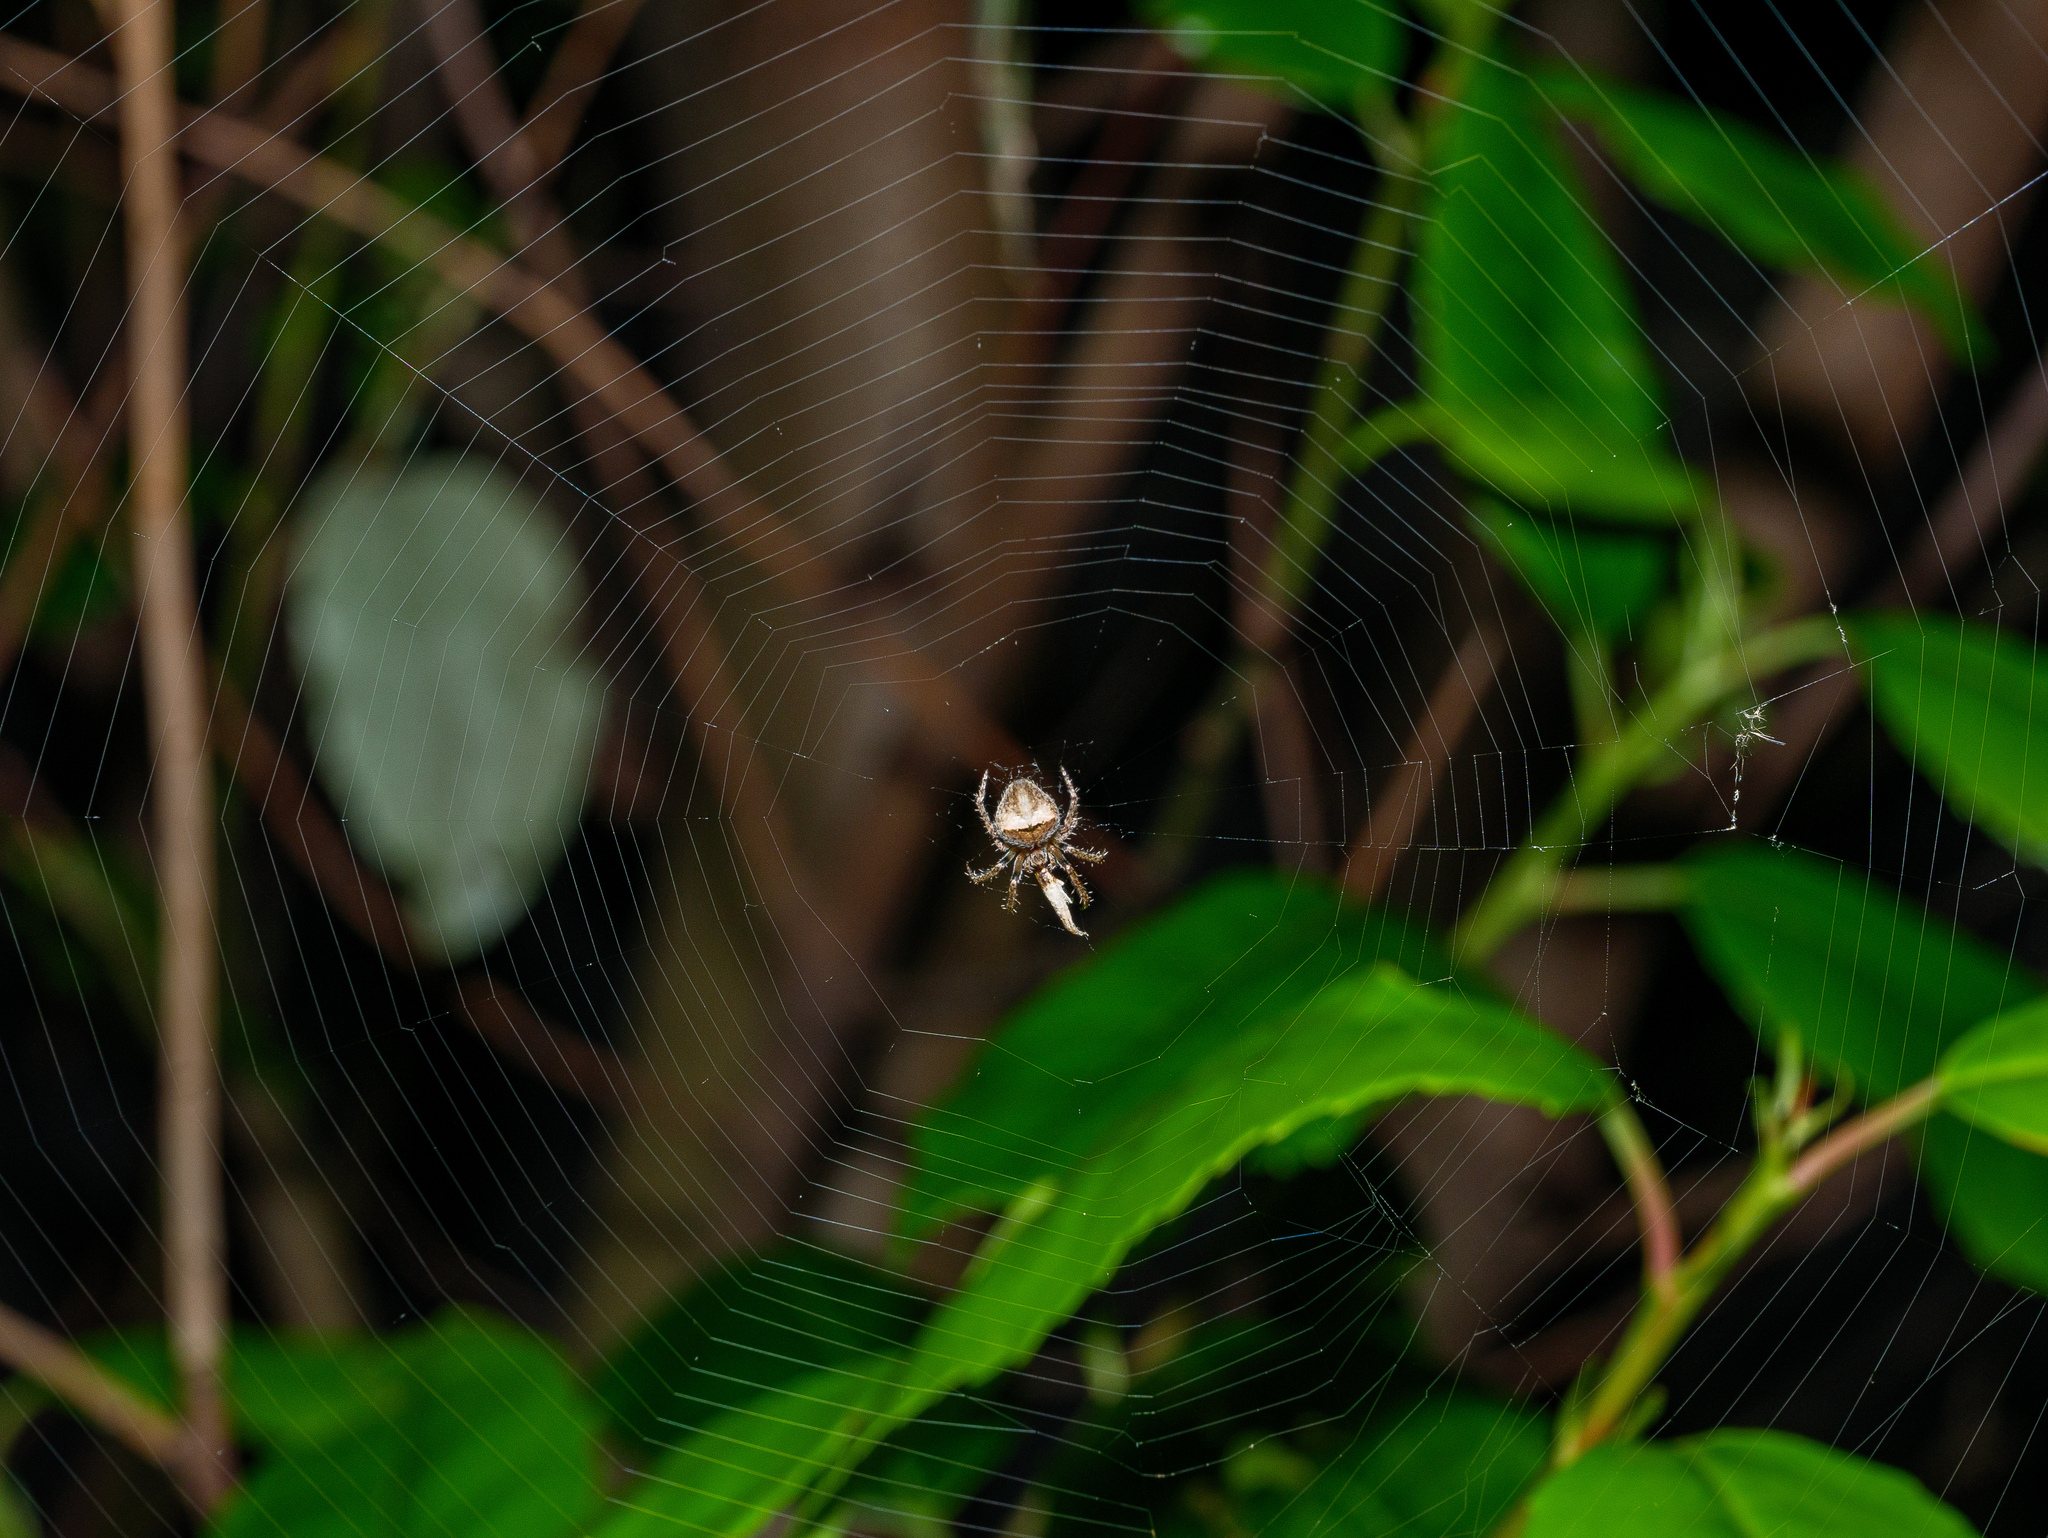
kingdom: Animalia
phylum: Arthropoda
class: Arachnida
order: Araneae
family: Araneidae
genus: Cryptaranea
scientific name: Cryptaranea albolineata
